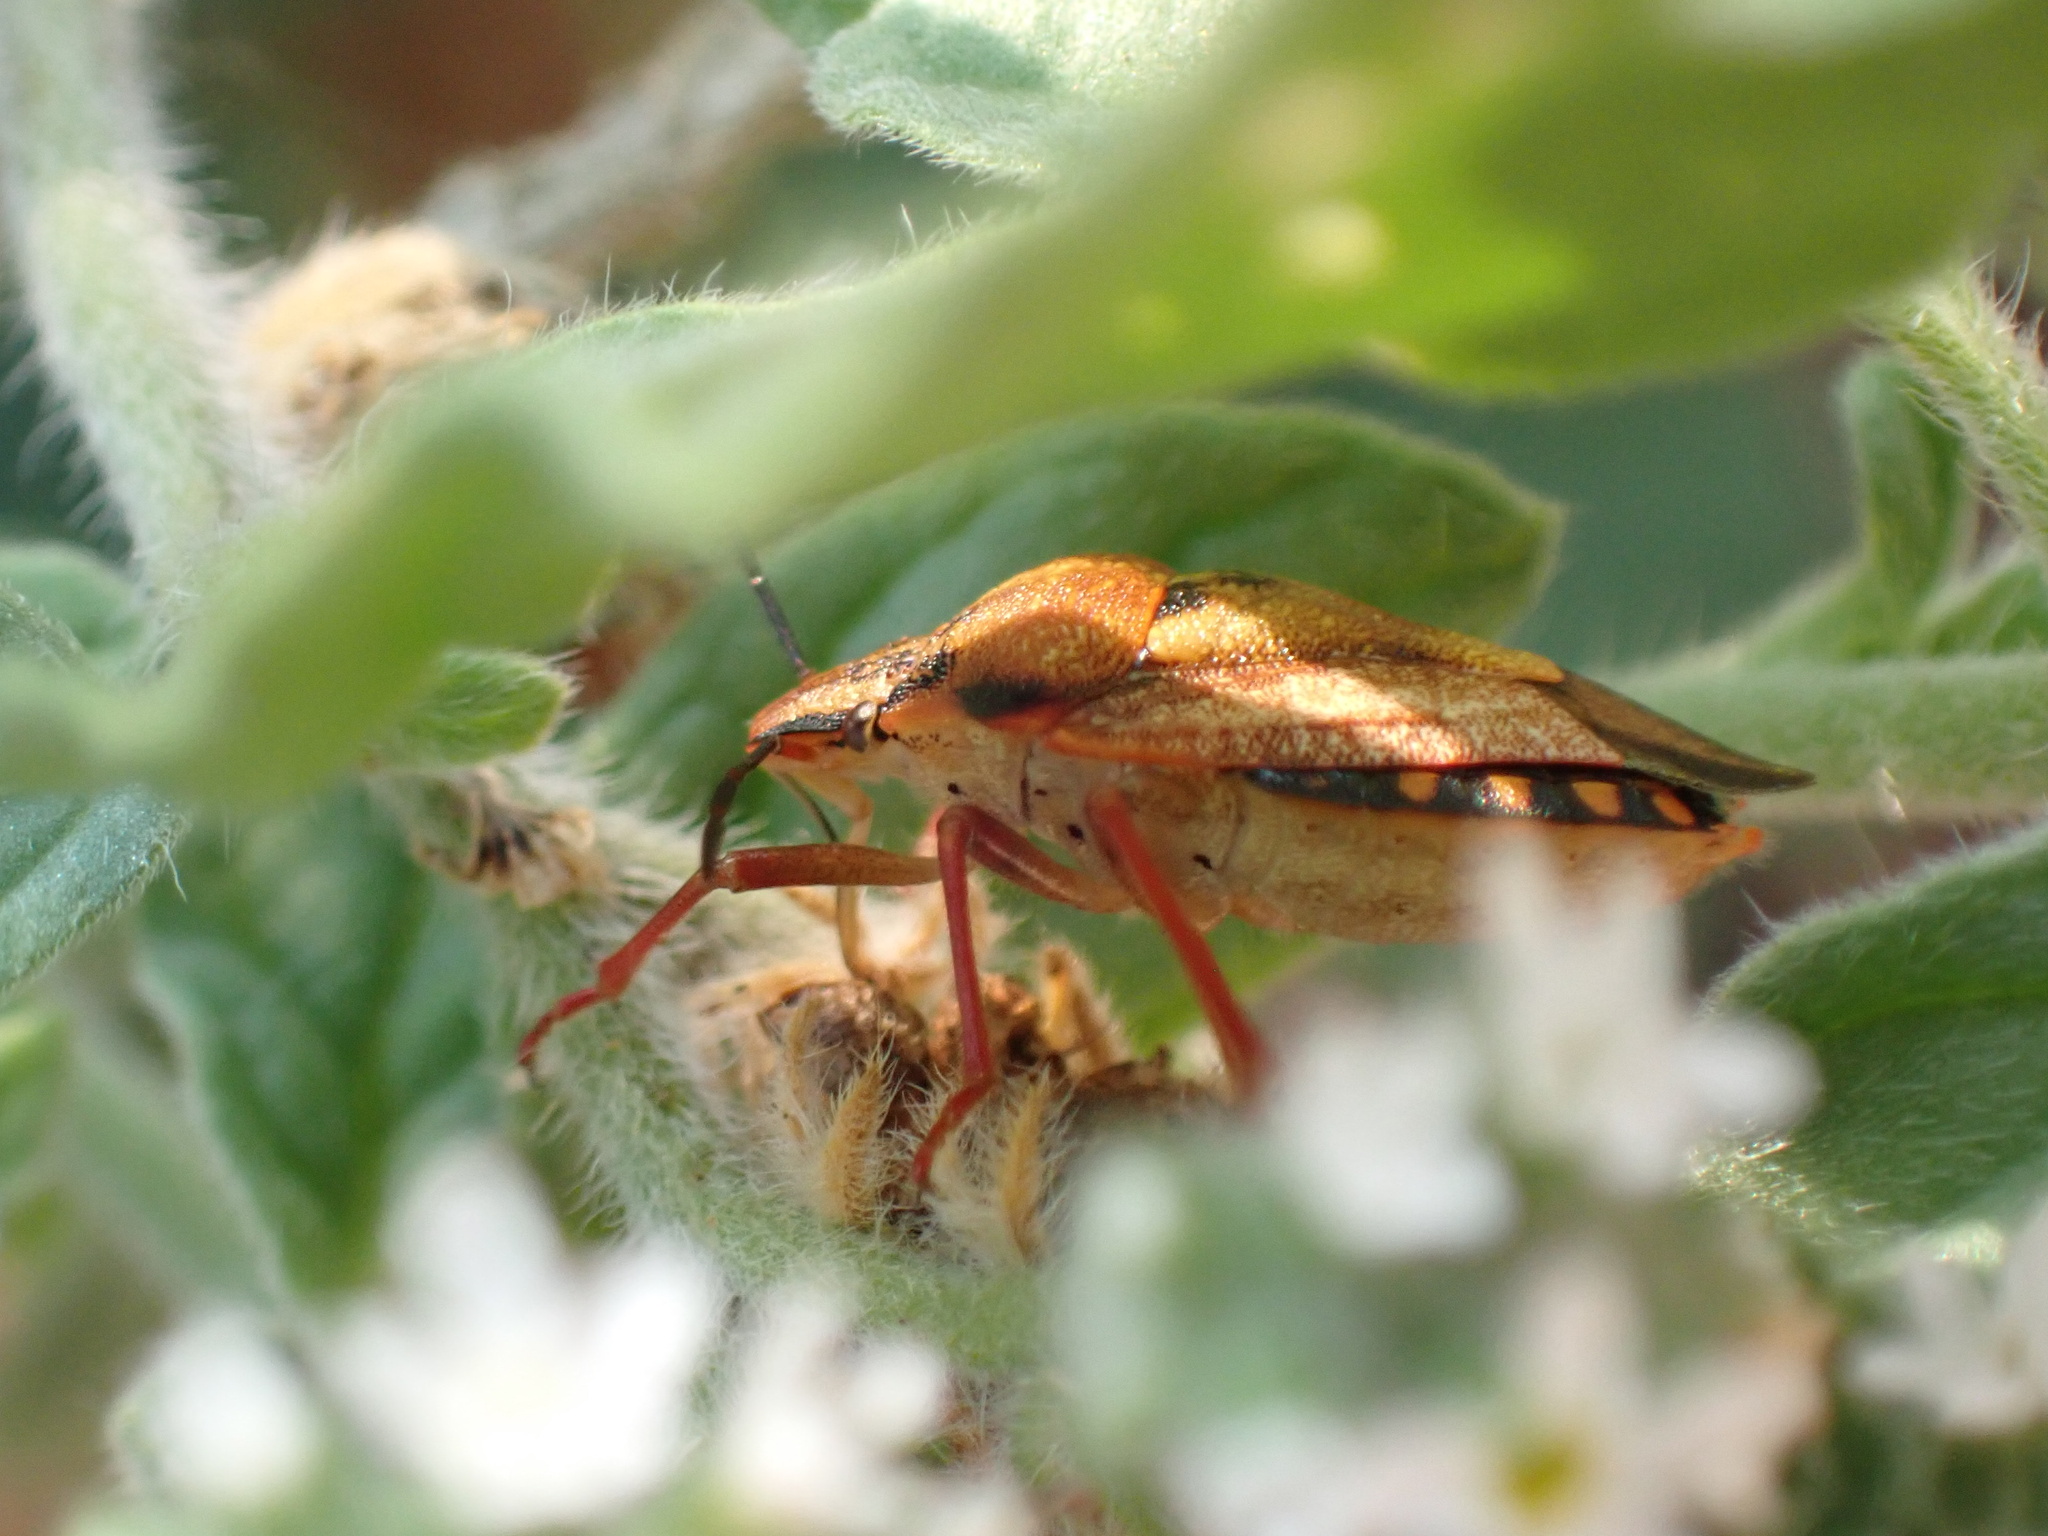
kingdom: Animalia
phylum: Arthropoda
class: Insecta
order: Hemiptera
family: Pentatomidae
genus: Carpocoris
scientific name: Carpocoris mediterraneus
